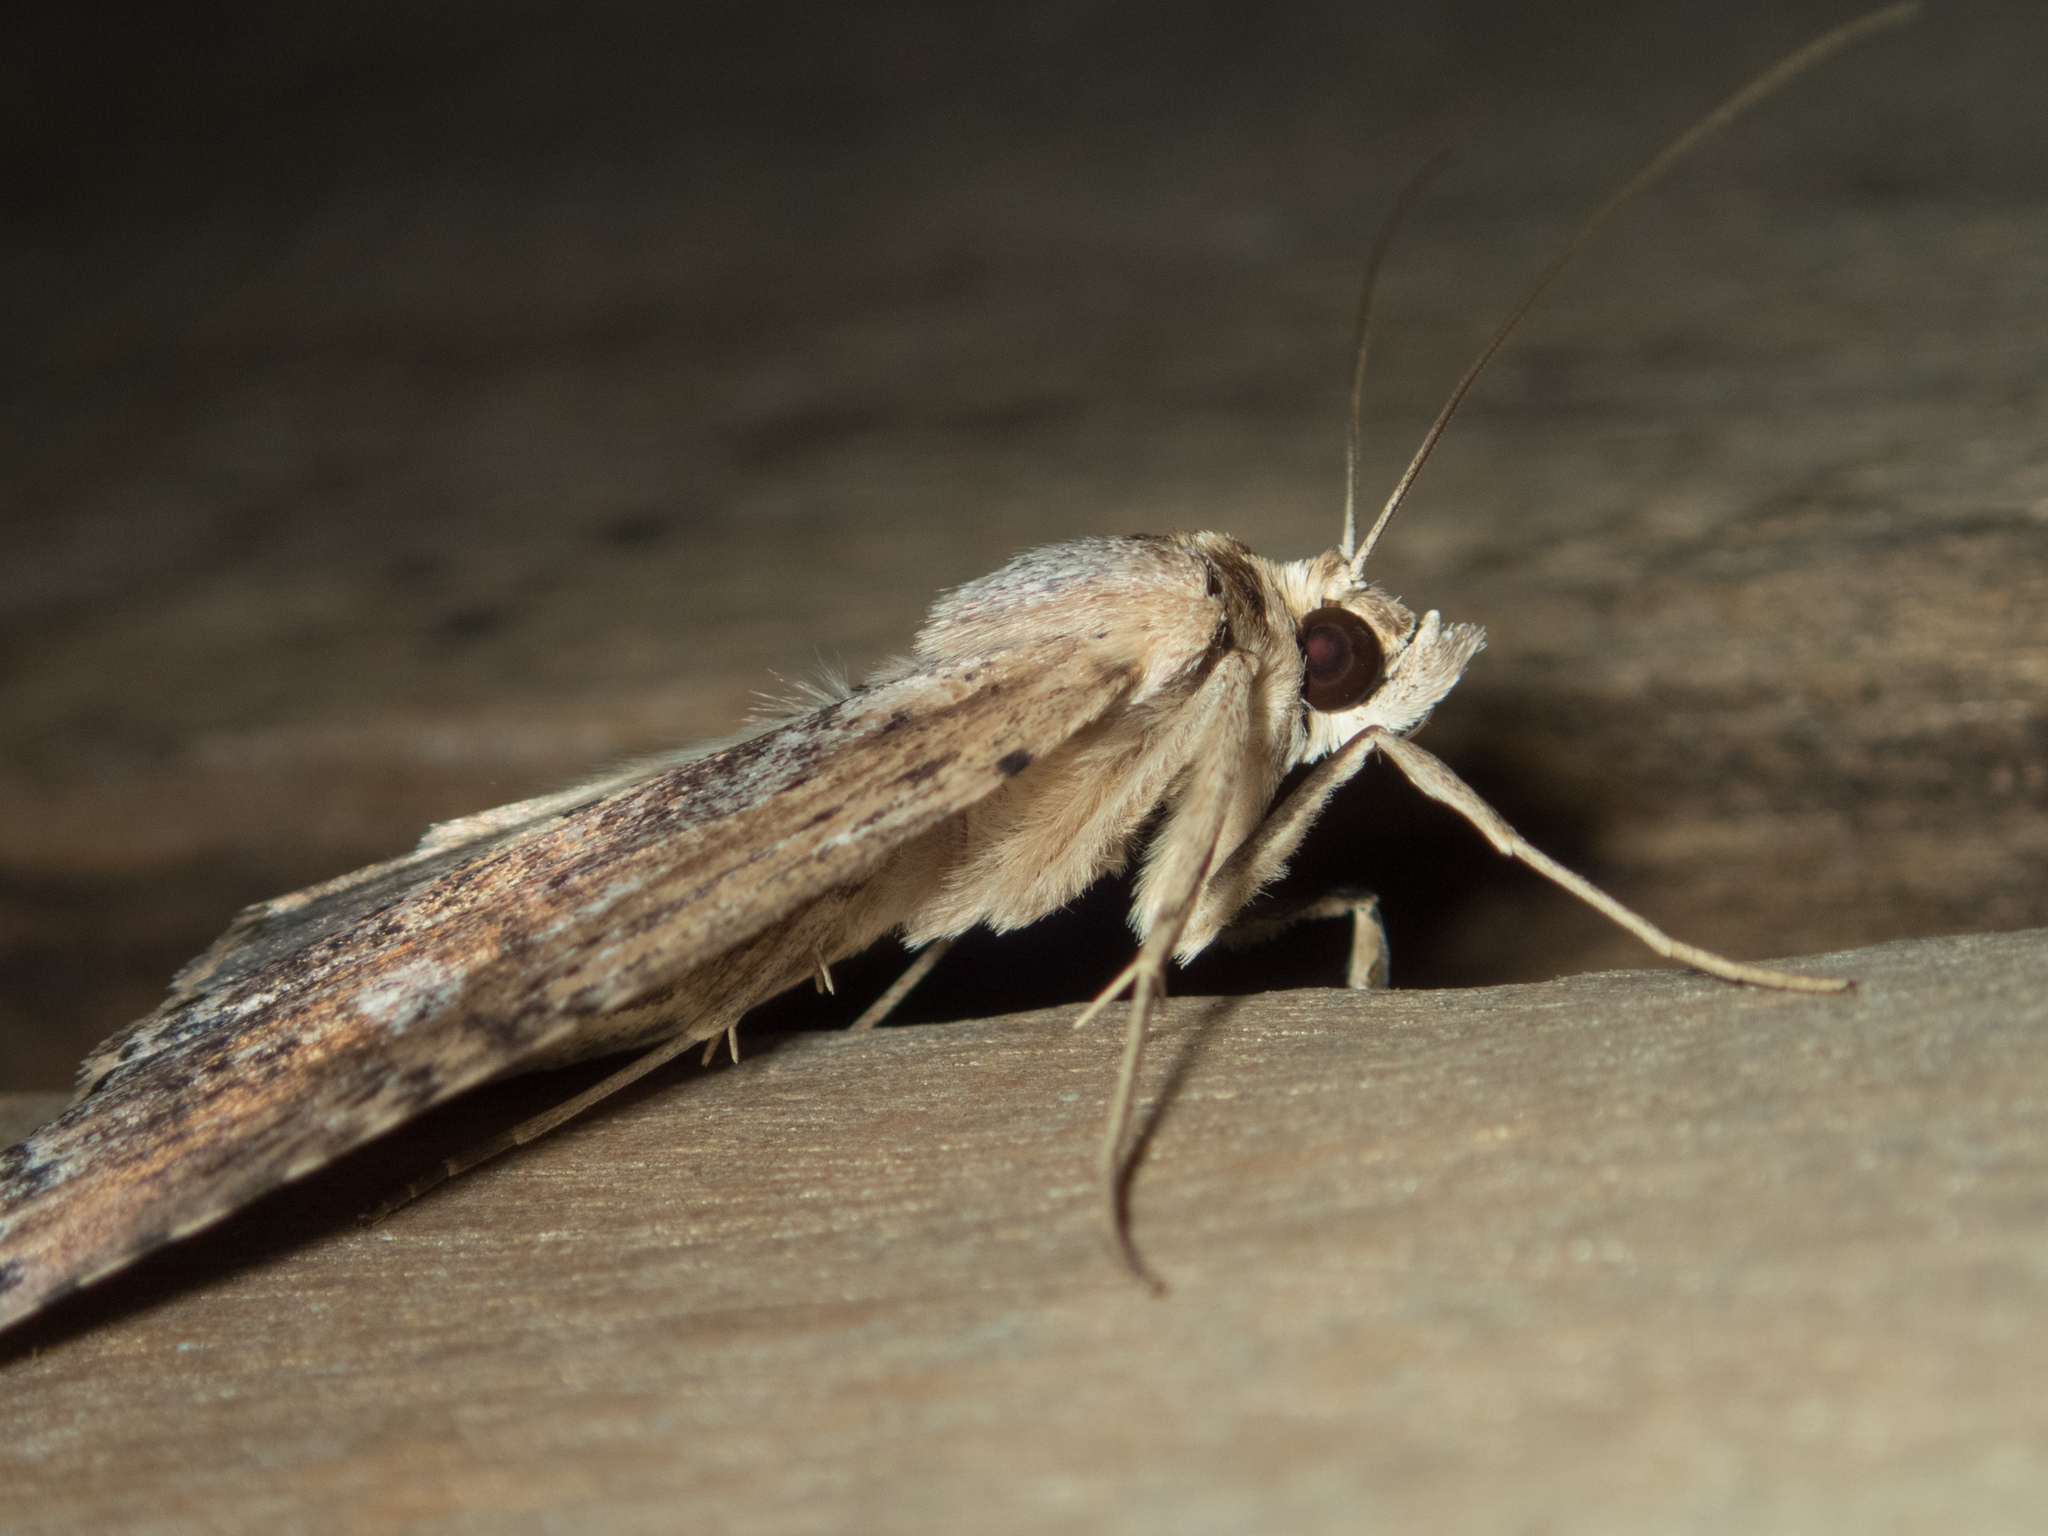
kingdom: Animalia
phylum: Arthropoda
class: Insecta
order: Lepidoptera
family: Notodontidae
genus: Thacona
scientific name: Thacona punctifascia
